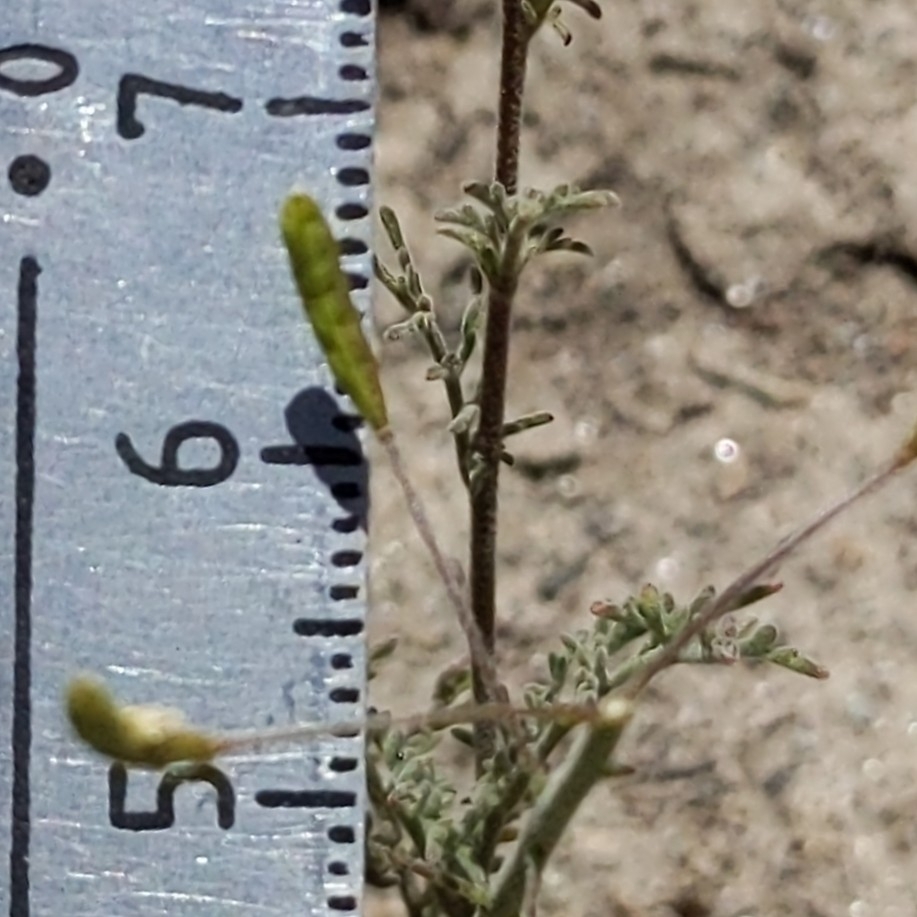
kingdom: Plantae
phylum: Tracheophyta
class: Magnoliopsida
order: Brassicales
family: Brassicaceae
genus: Descurainia
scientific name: Descurainia pinnata
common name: Western tansy mustard
